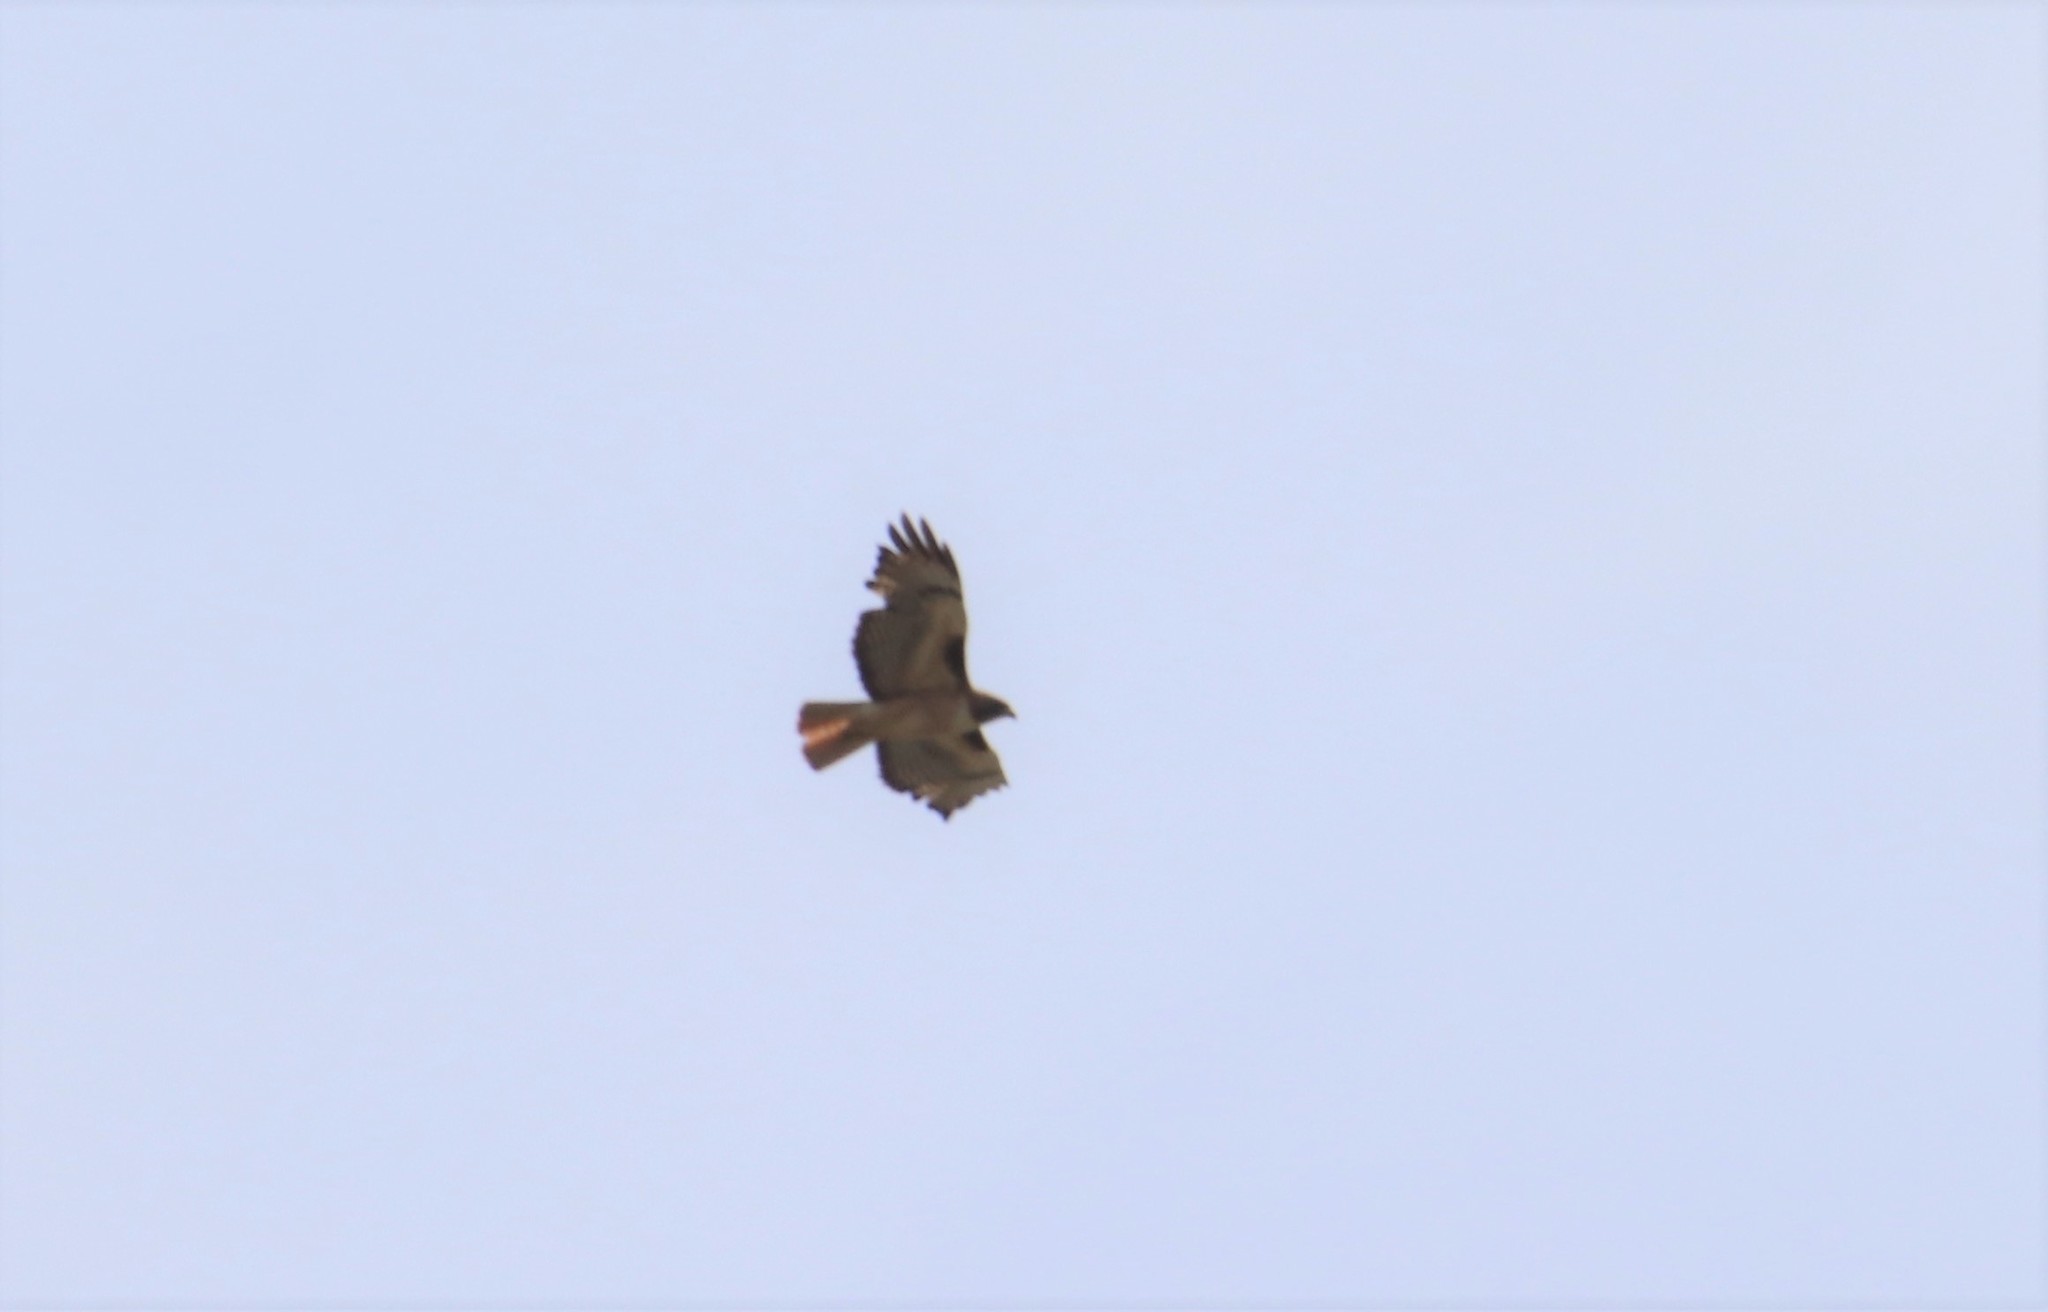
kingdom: Animalia
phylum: Chordata
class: Aves
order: Accipitriformes
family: Accipitridae
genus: Buteo
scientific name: Buteo jamaicensis
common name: Red-tailed hawk
